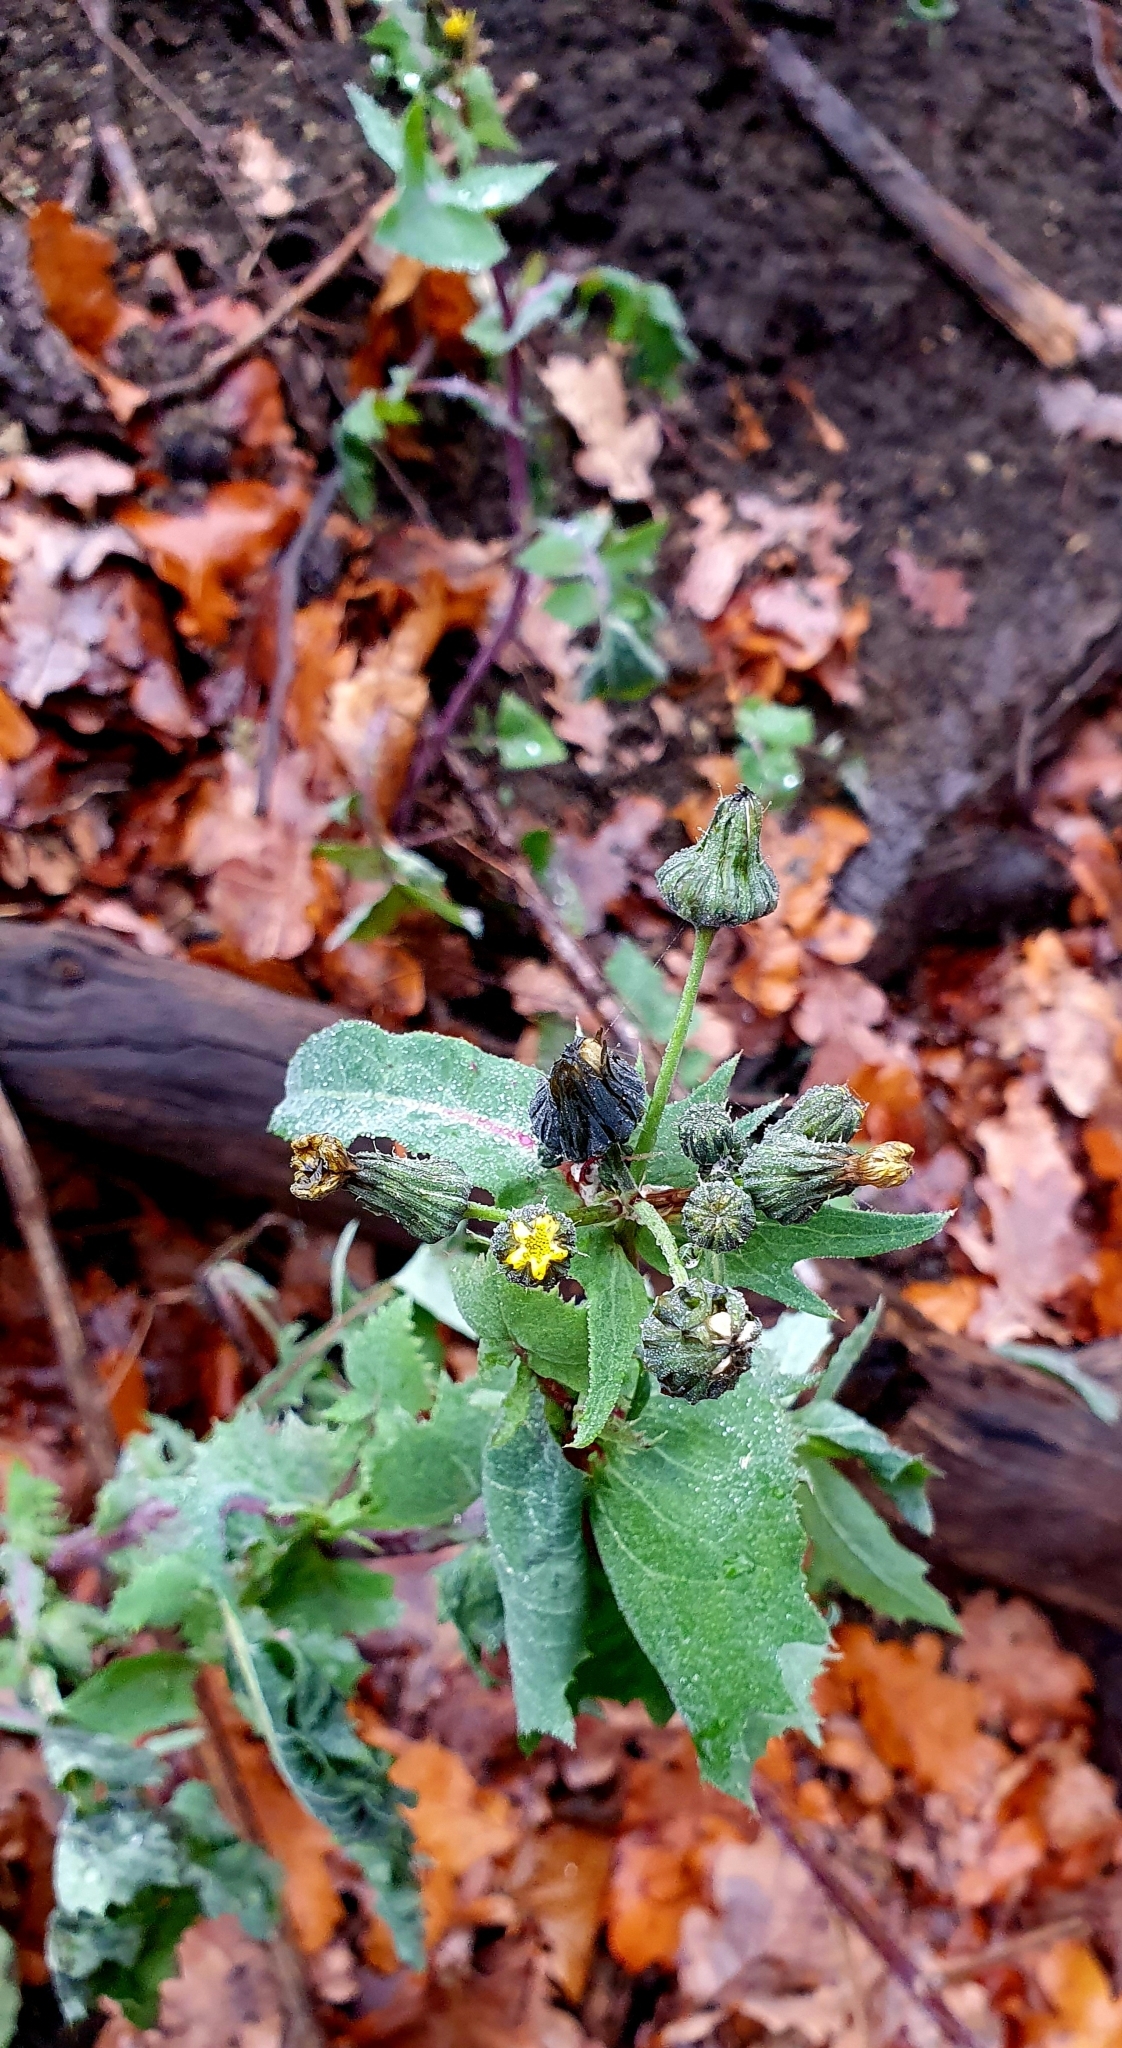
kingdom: Plantae
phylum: Tracheophyta
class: Magnoliopsida
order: Asterales
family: Asteraceae
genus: Sonchus
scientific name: Sonchus oleraceus
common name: Common sowthistle
